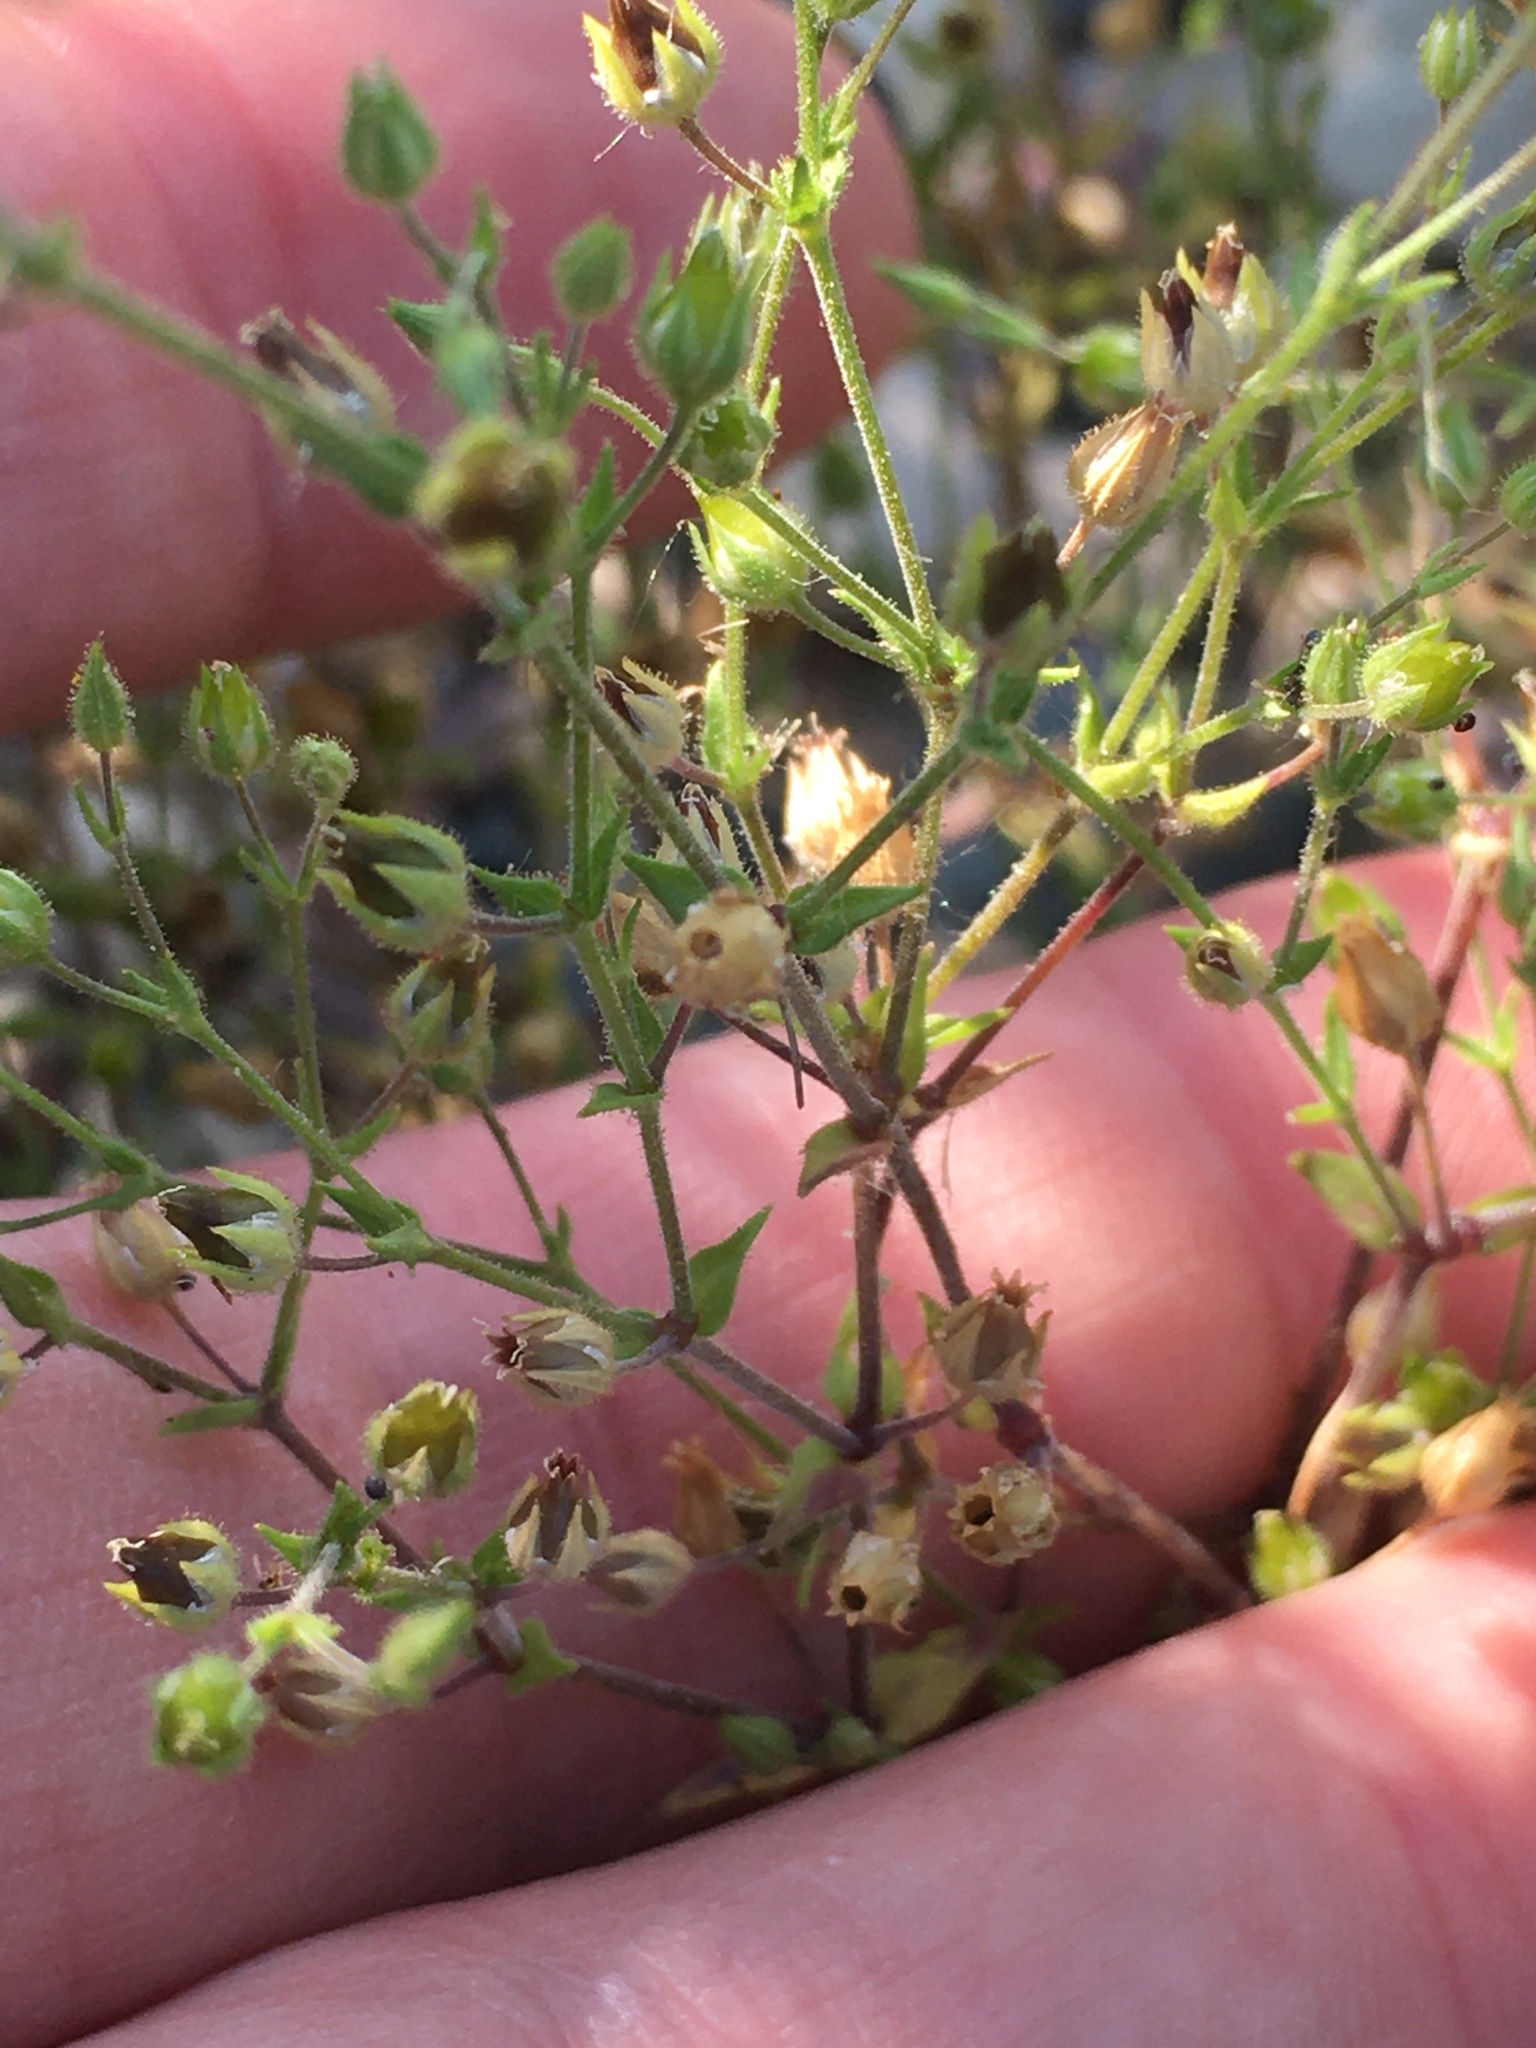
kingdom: Plantae
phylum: Tracheophyta
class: Magnoliopsida
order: Caryophyllales
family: Caryophyllaceae
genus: Arenaria
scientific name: Arenaria serpyllifolia
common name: Thyme-leaved sandwort
